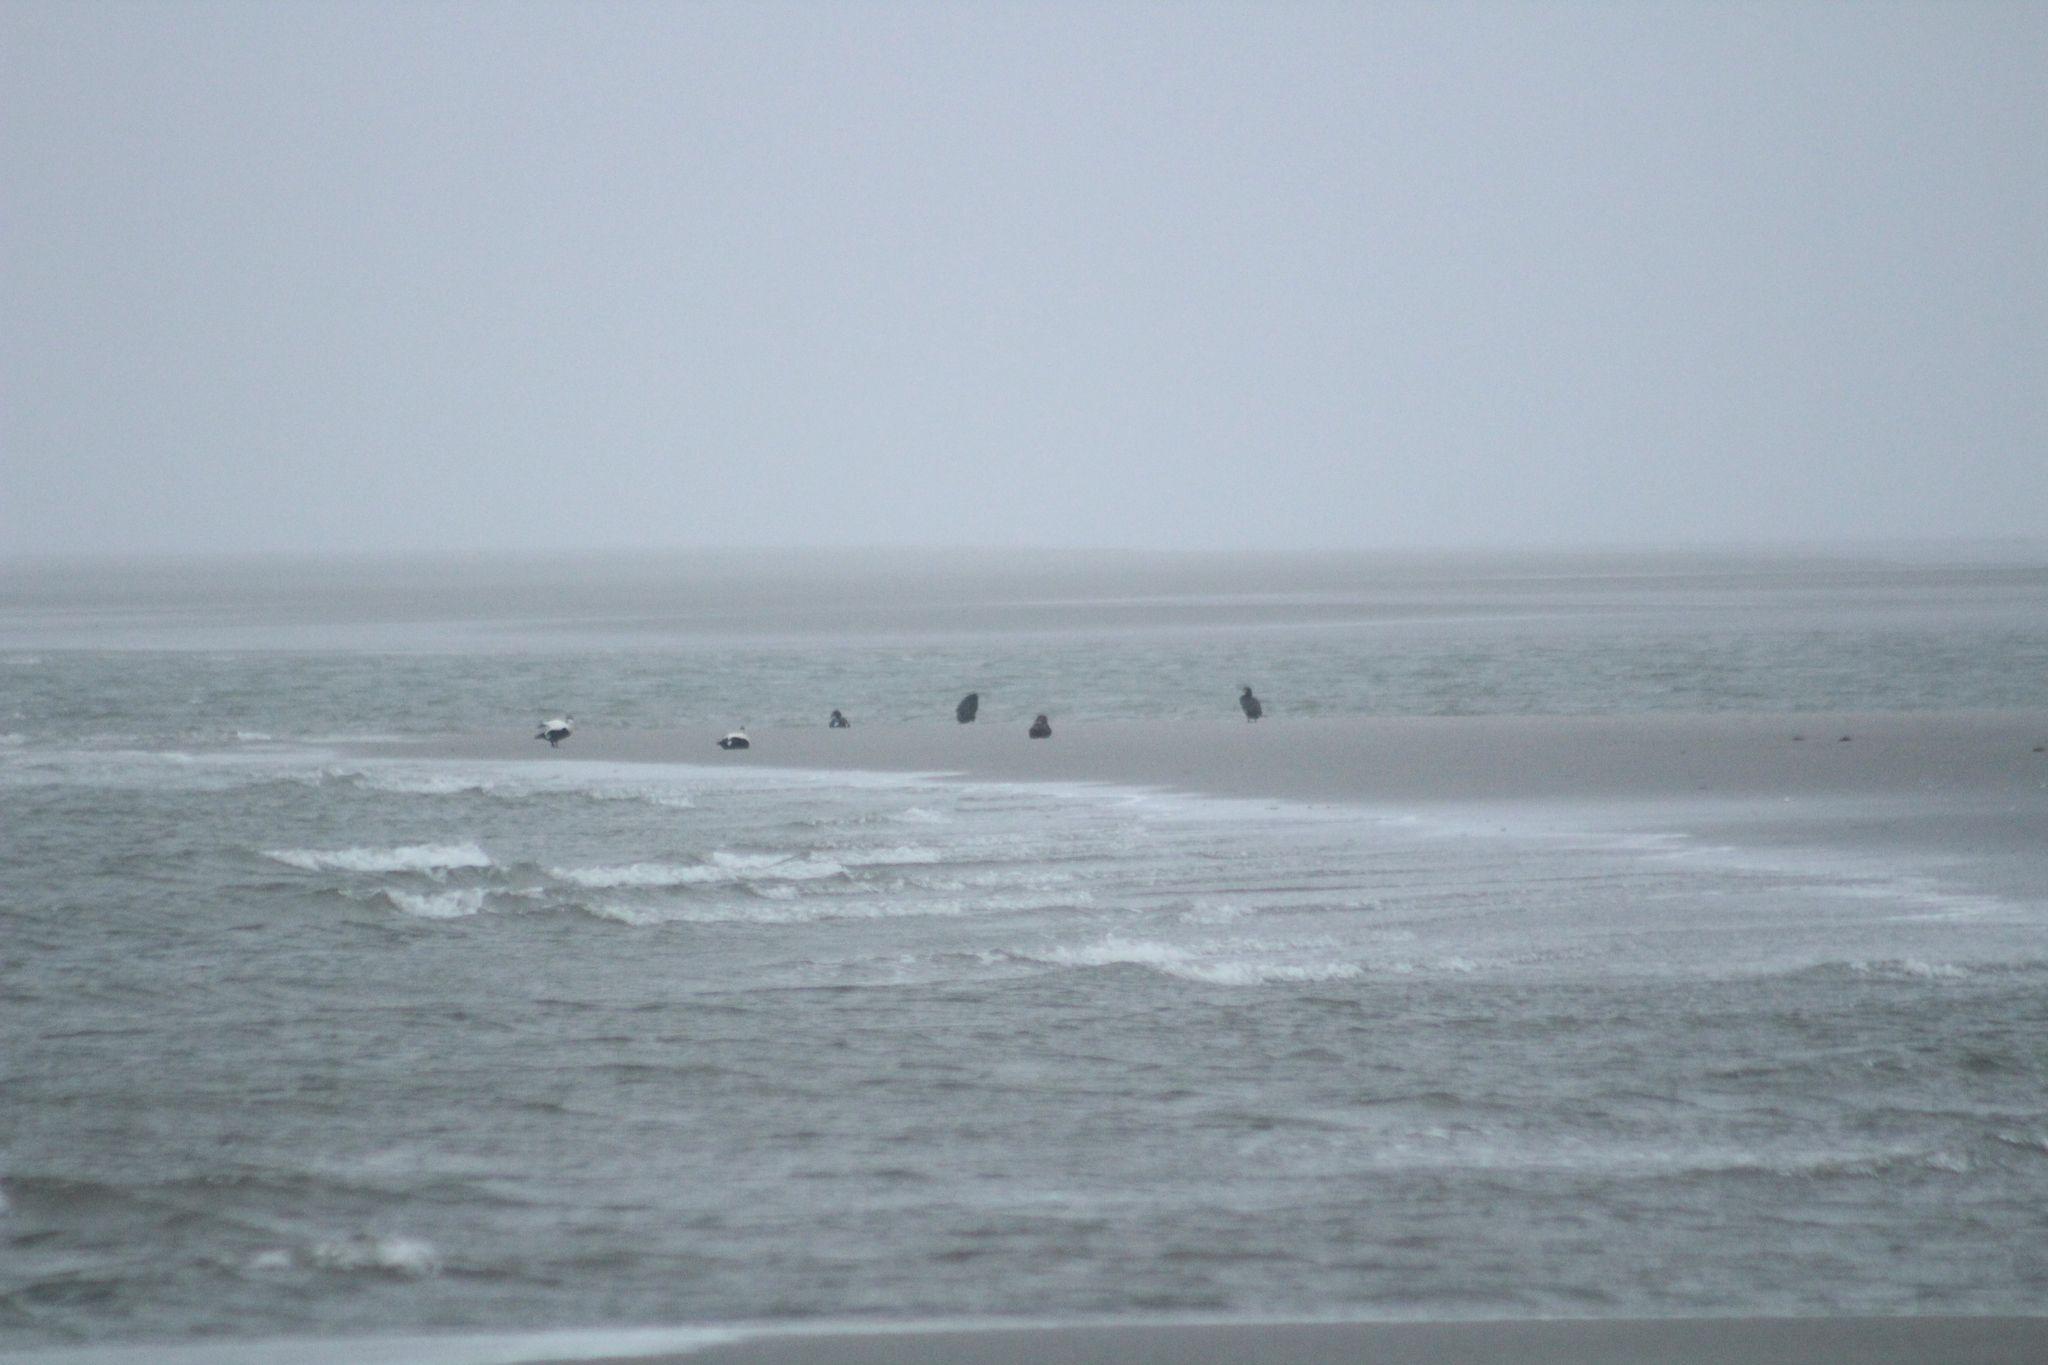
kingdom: Animalia
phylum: Chordata
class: Aves
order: Anseriformes
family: Anatidae
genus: Somateria
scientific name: Somateria mollissima
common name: Common eider
